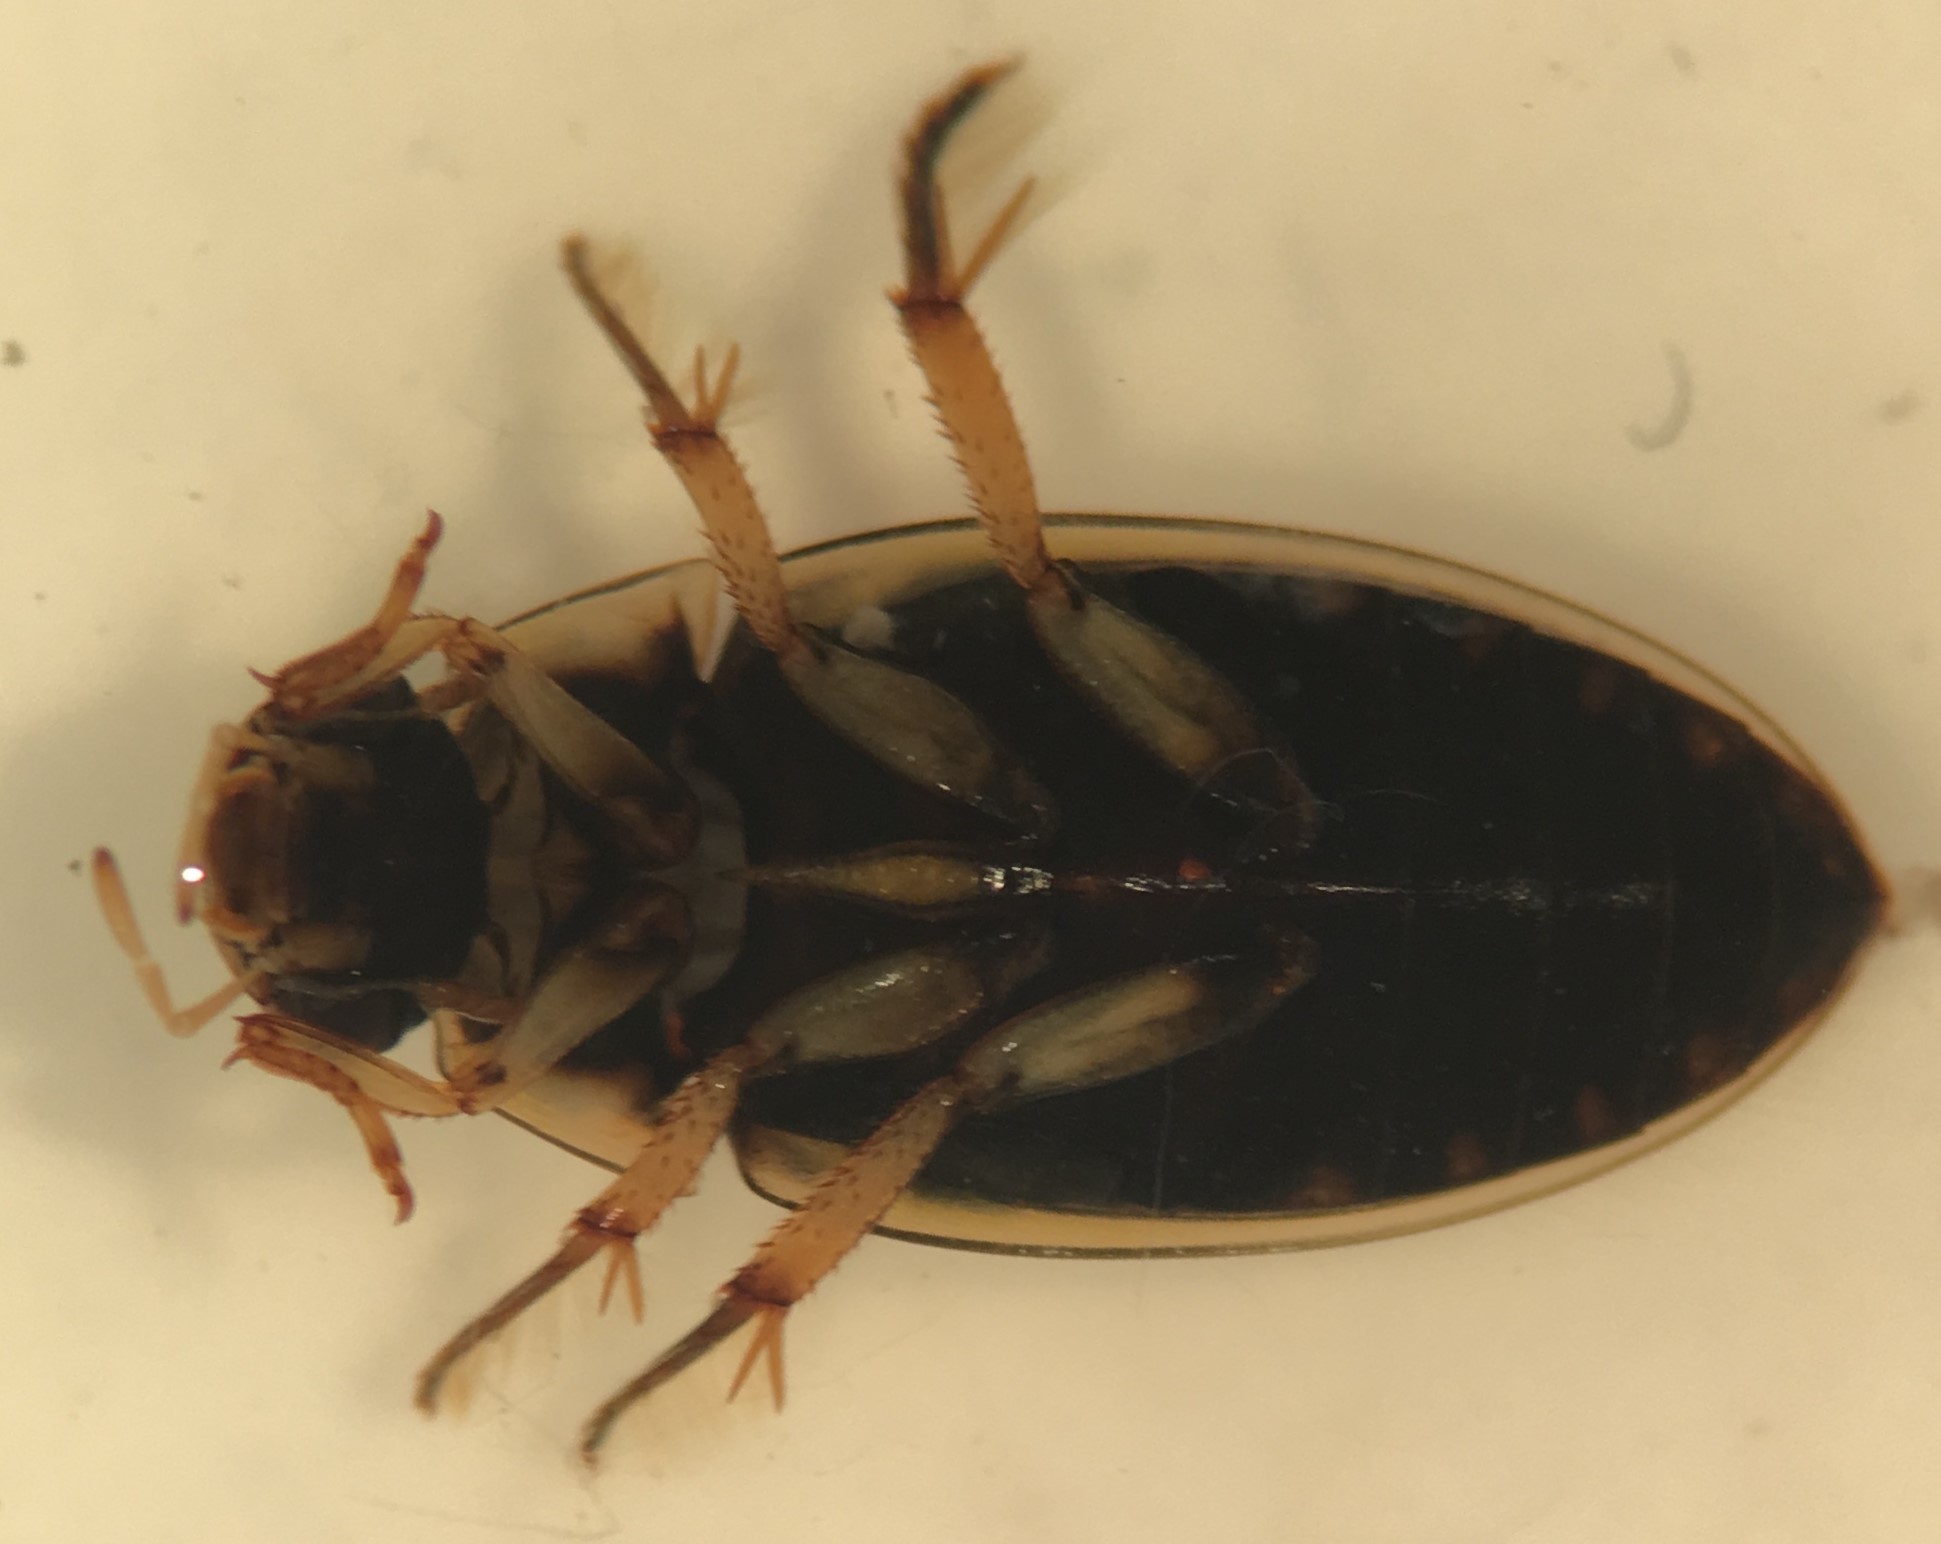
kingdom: Animalia
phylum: Arthropoda
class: Insecta
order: Coleoptera
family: Hydrophilidae
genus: Tropisternus
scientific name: Tropisternus lateralis
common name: Lateral-banded water scavenger beetle
